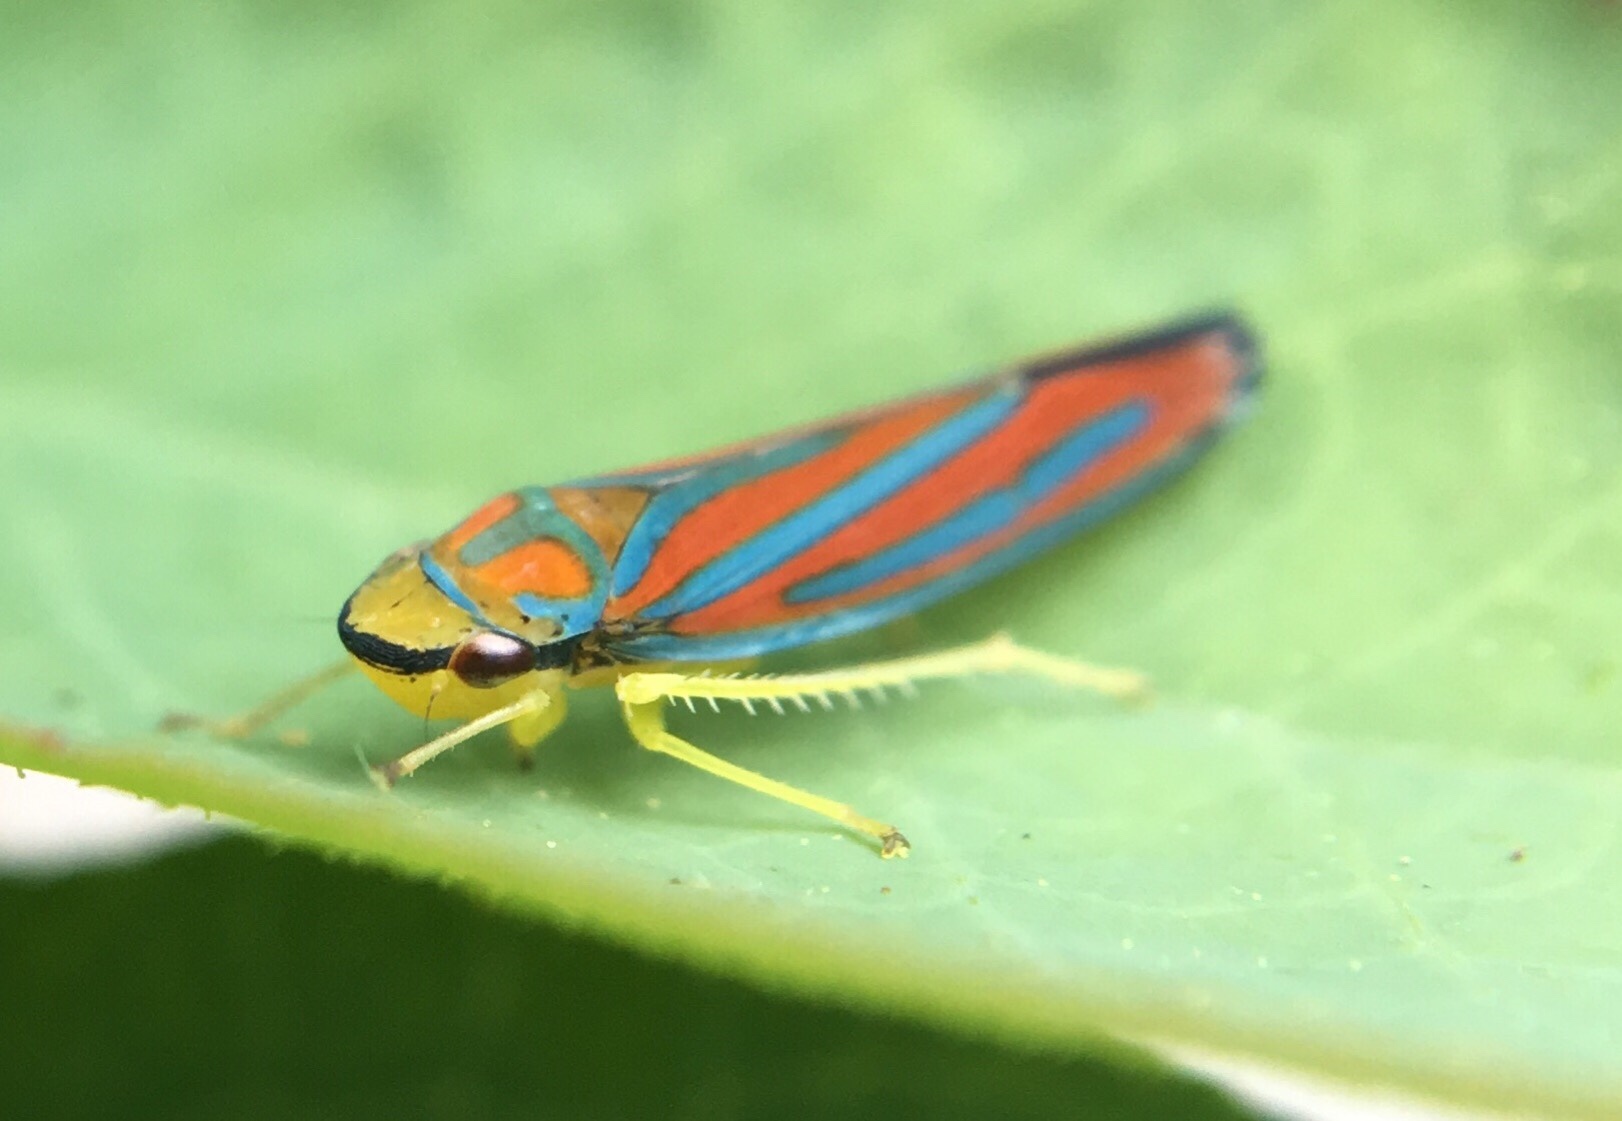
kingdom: Animalia
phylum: Arthropoda
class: Insecta
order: Hemiptera
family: Cicadellidae
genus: Graphocephala
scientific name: Graphocephala coccinea
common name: Candy-striped leafhopper
